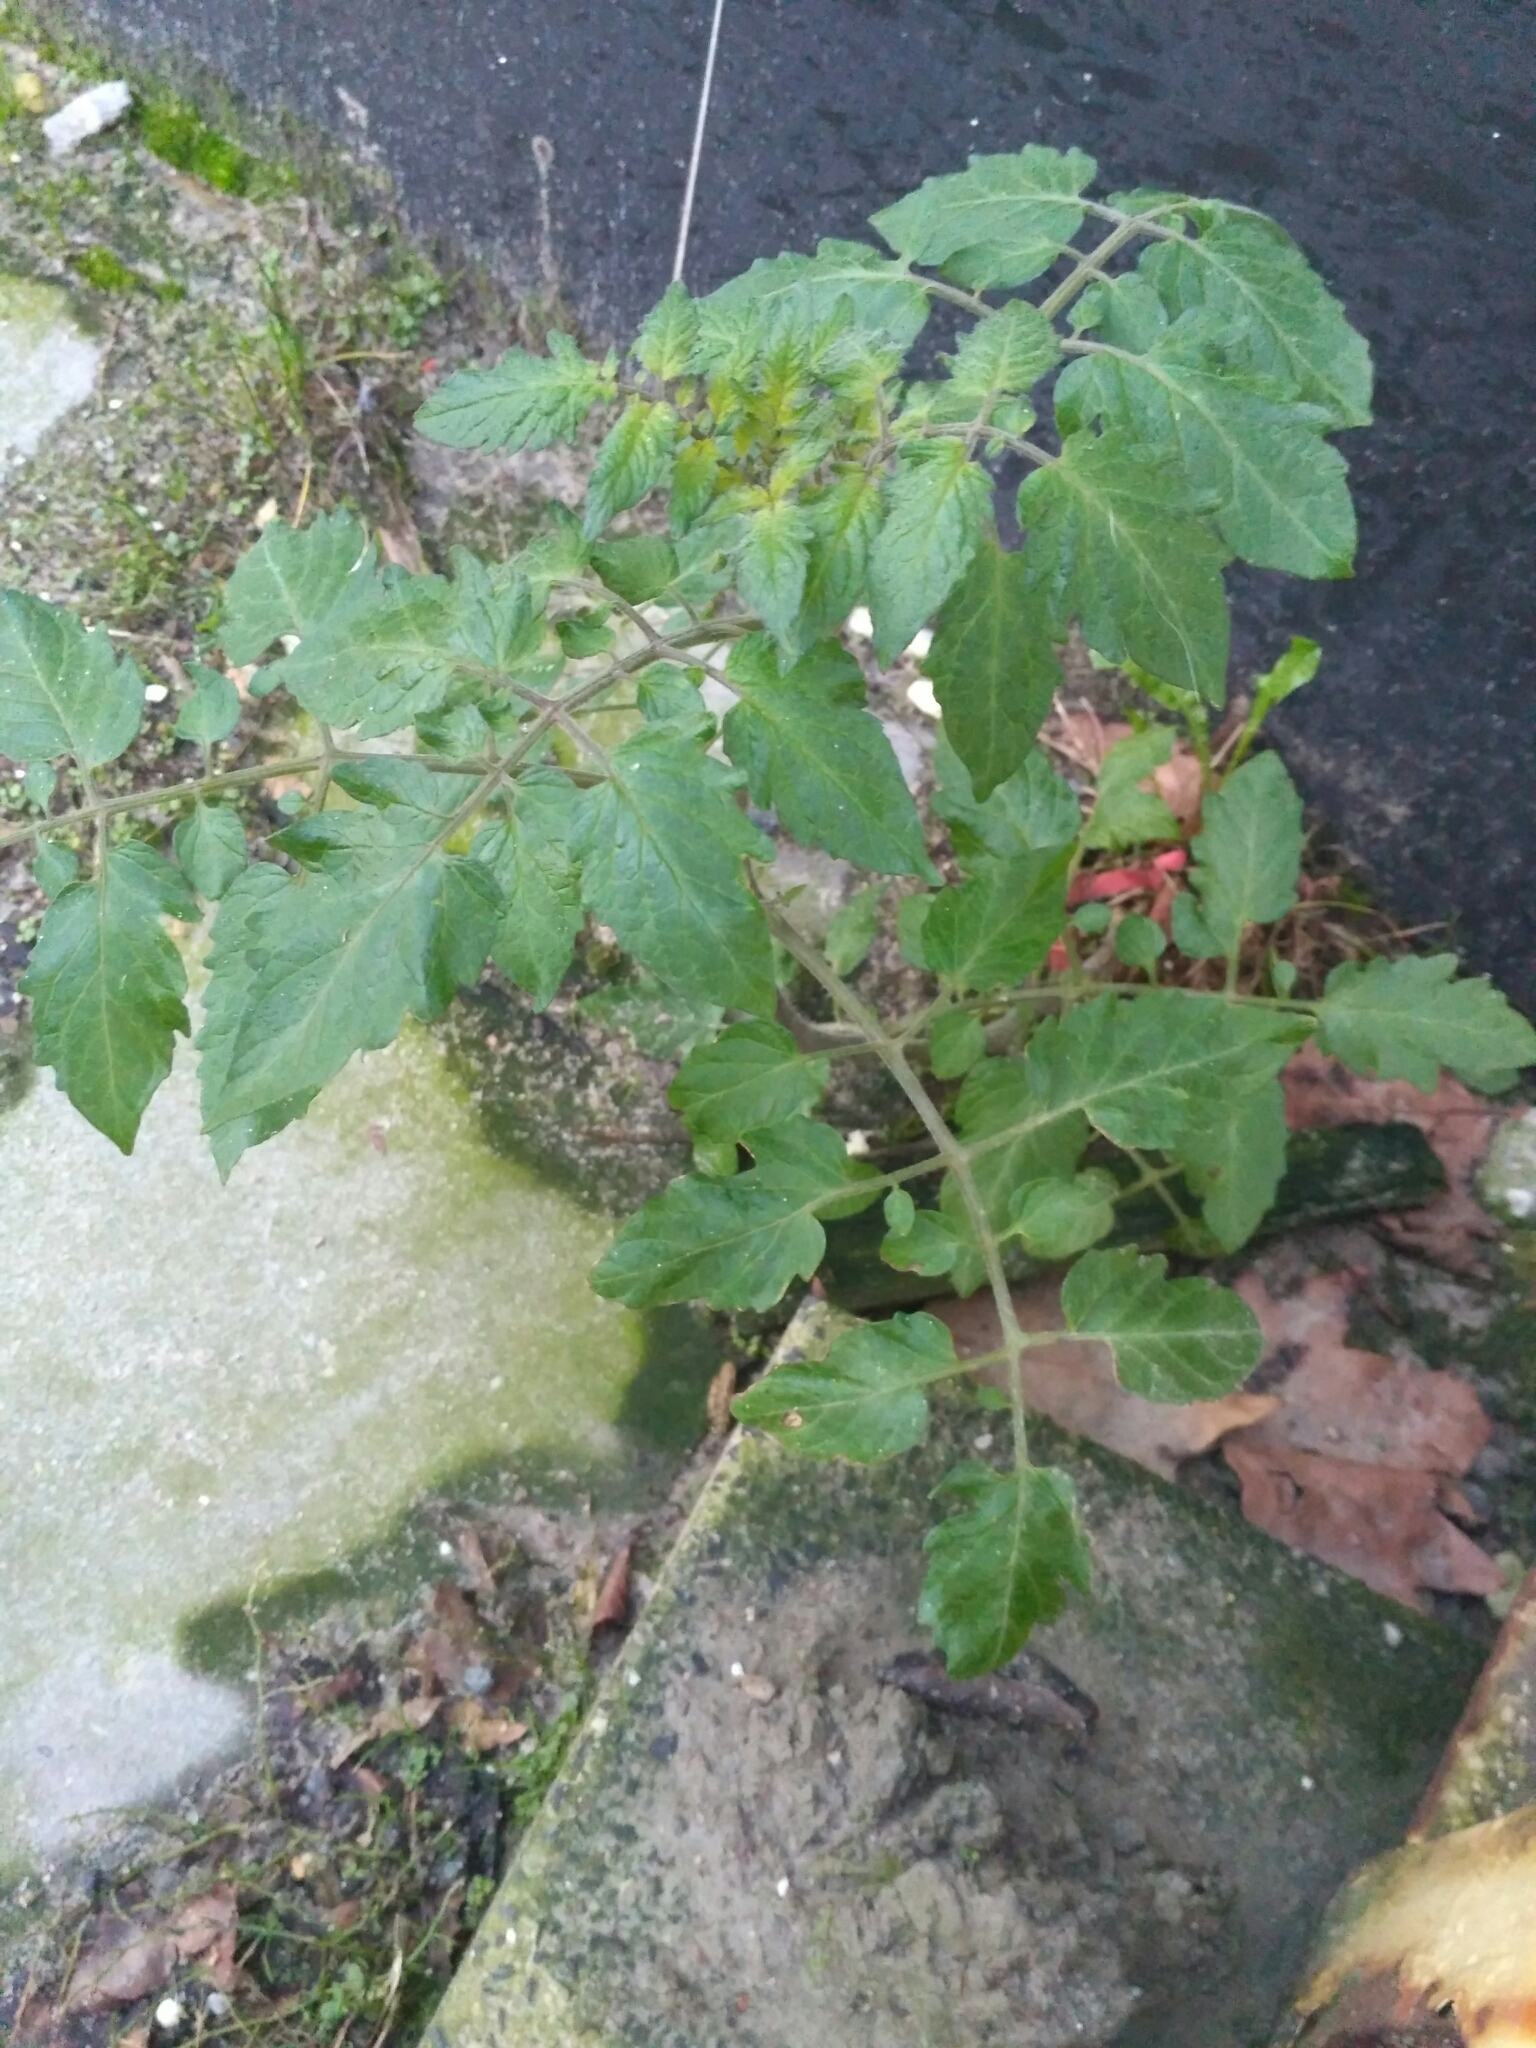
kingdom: Plantae
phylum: Tracheophyta
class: Magnoliopsida
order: Solanales
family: Solanaceae
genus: Solanum
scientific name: Solanum lycopersicum
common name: Garden tomato
